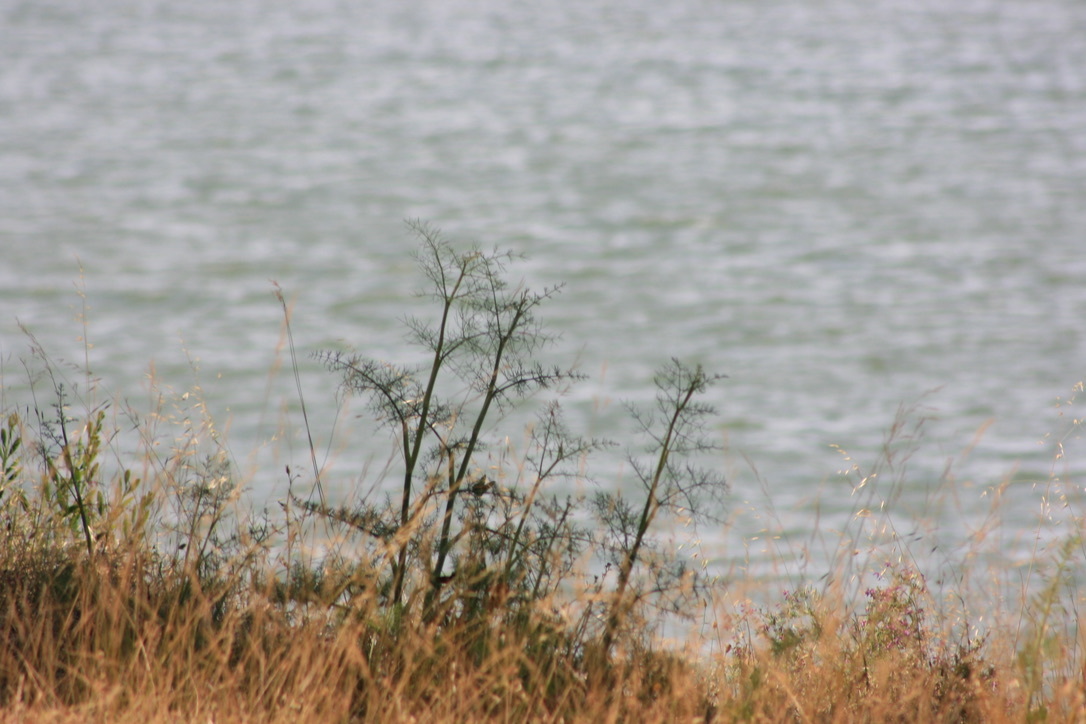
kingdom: Plantae
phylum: Tracheophyta
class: Magnoliopsida
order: Apiales
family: Apiaceae
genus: Foeniculum
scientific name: Foeniculum vulgare
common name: Fennel
